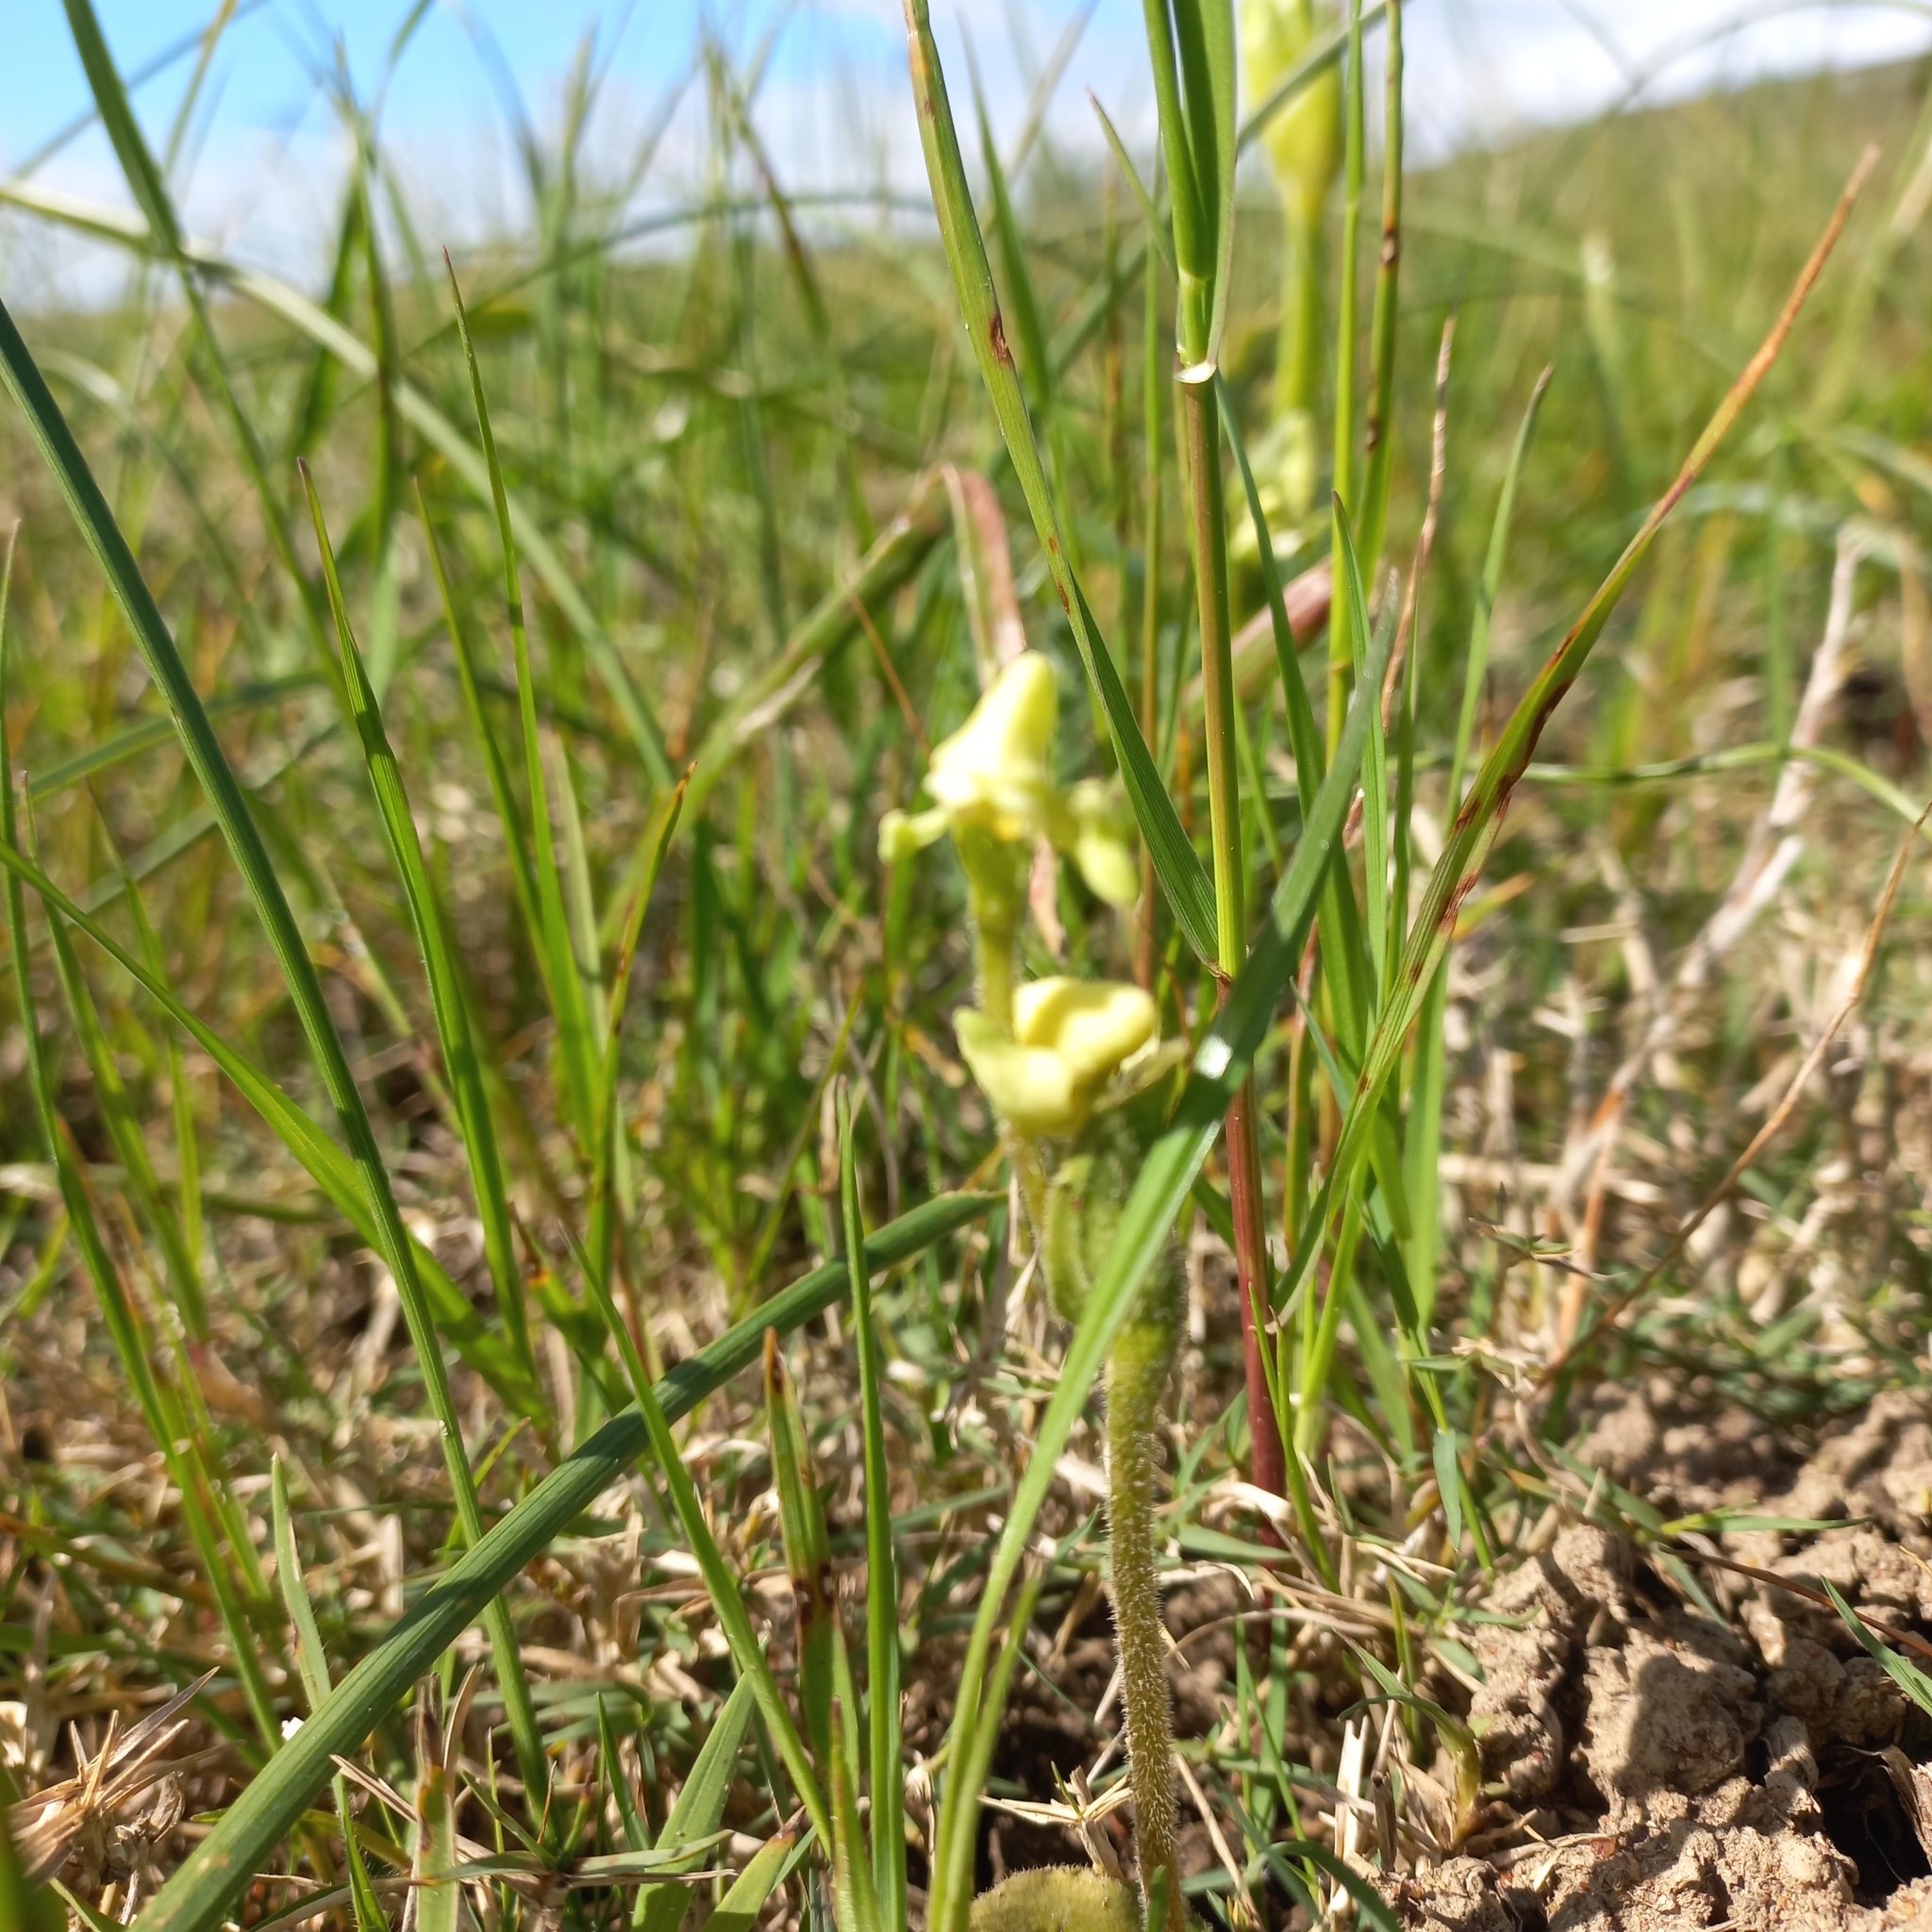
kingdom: Plantae
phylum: Tracheophyta
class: Liliopsida
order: Asparagales
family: Orchidaceae
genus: Disperis
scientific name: Disperis villosa
